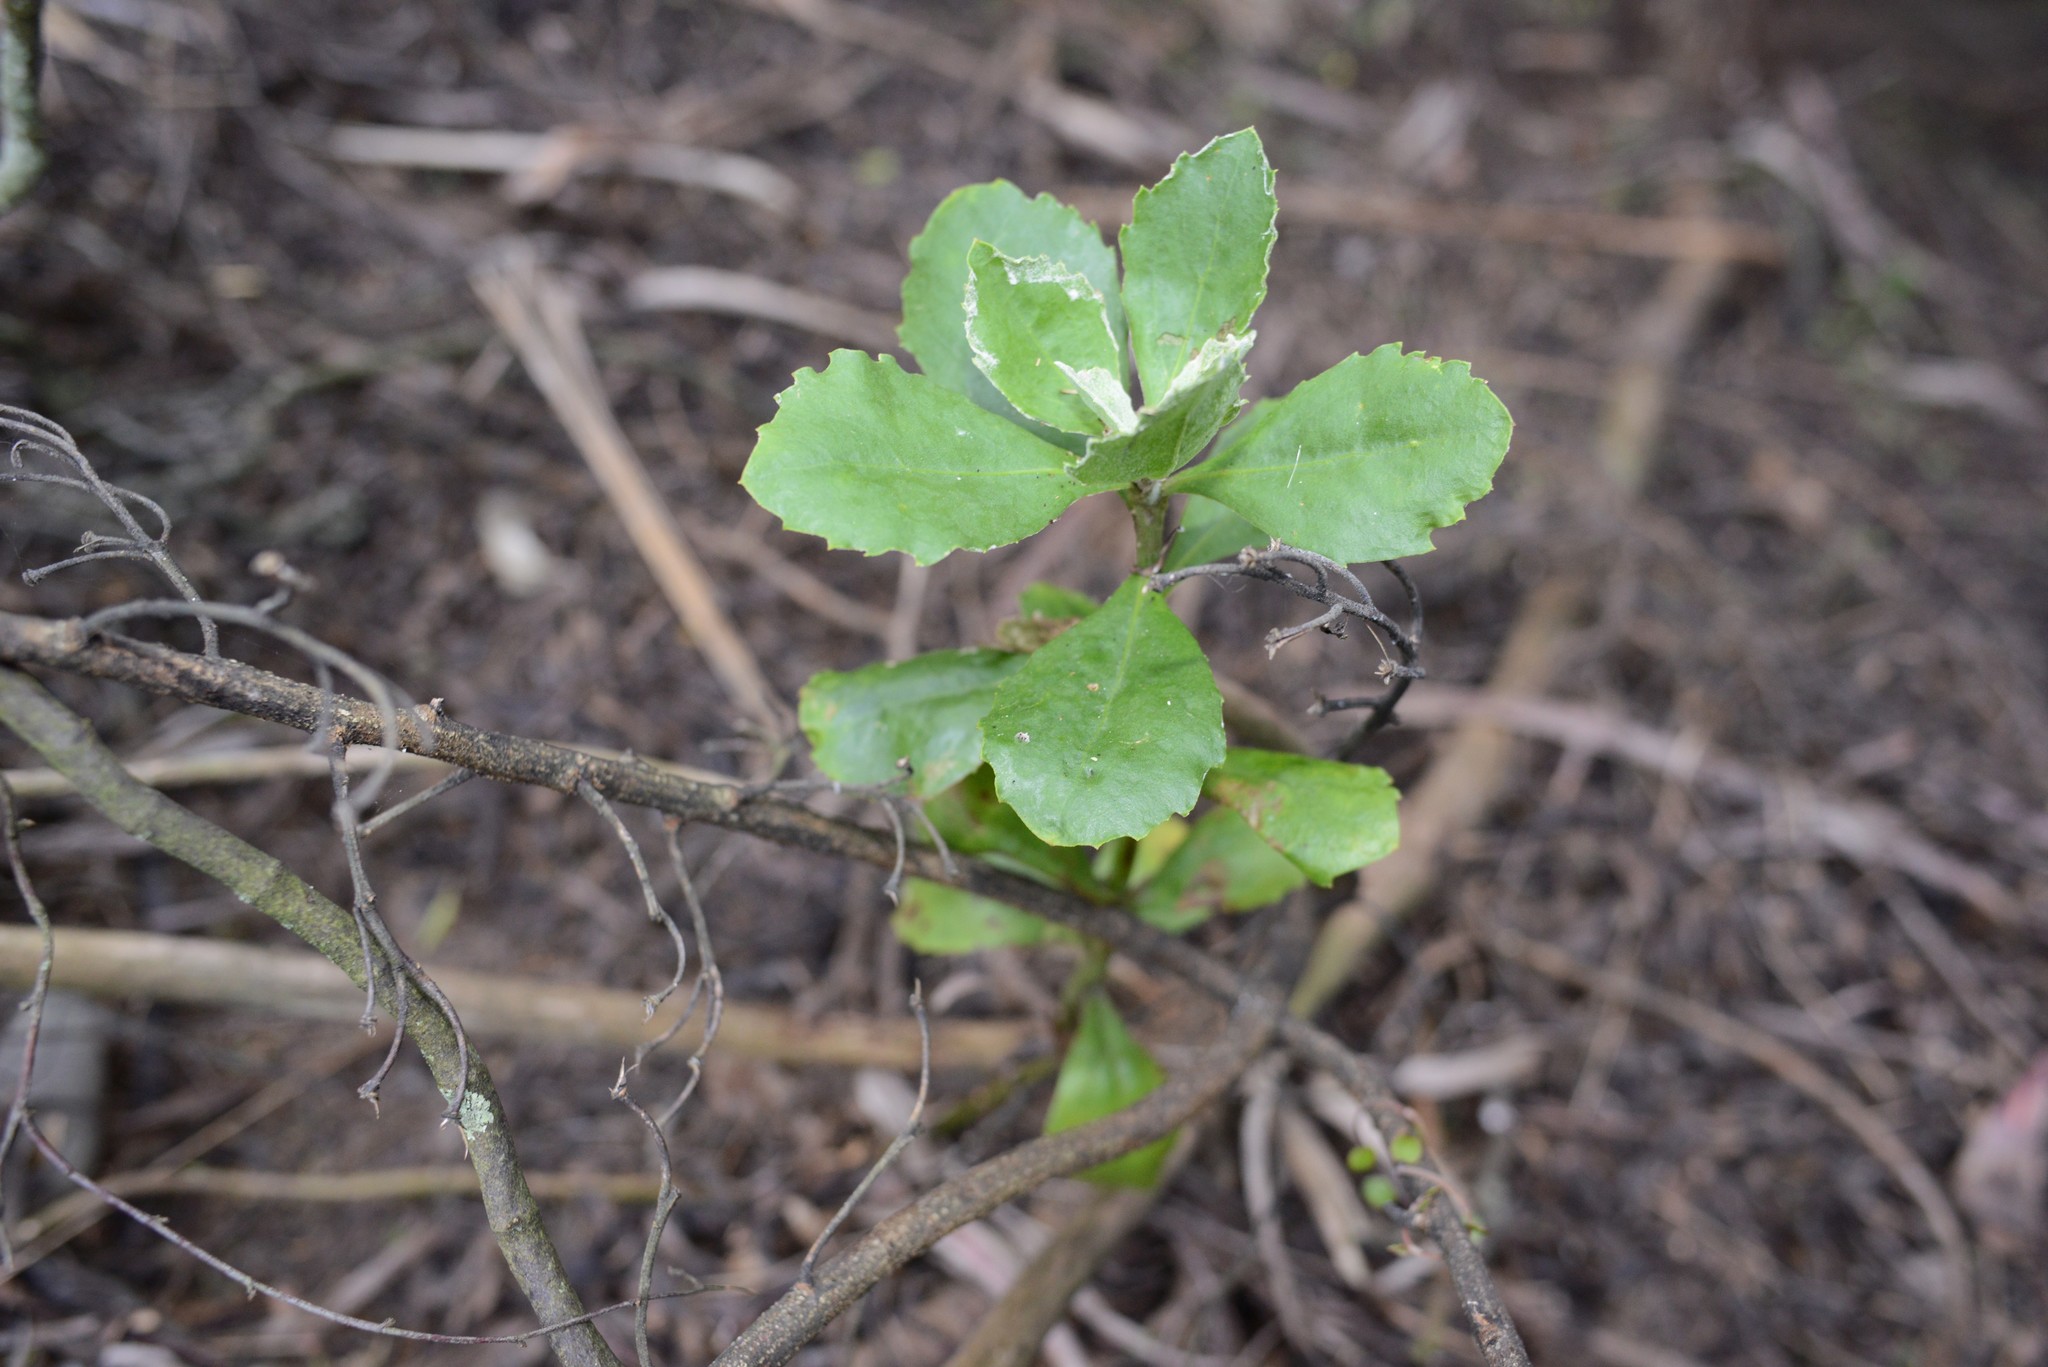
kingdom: Plantae
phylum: Tracheophyta
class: Magnoliopsida
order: Asterales
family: Asteraceae
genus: Osteospermum
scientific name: Osteospermum moniliferum
